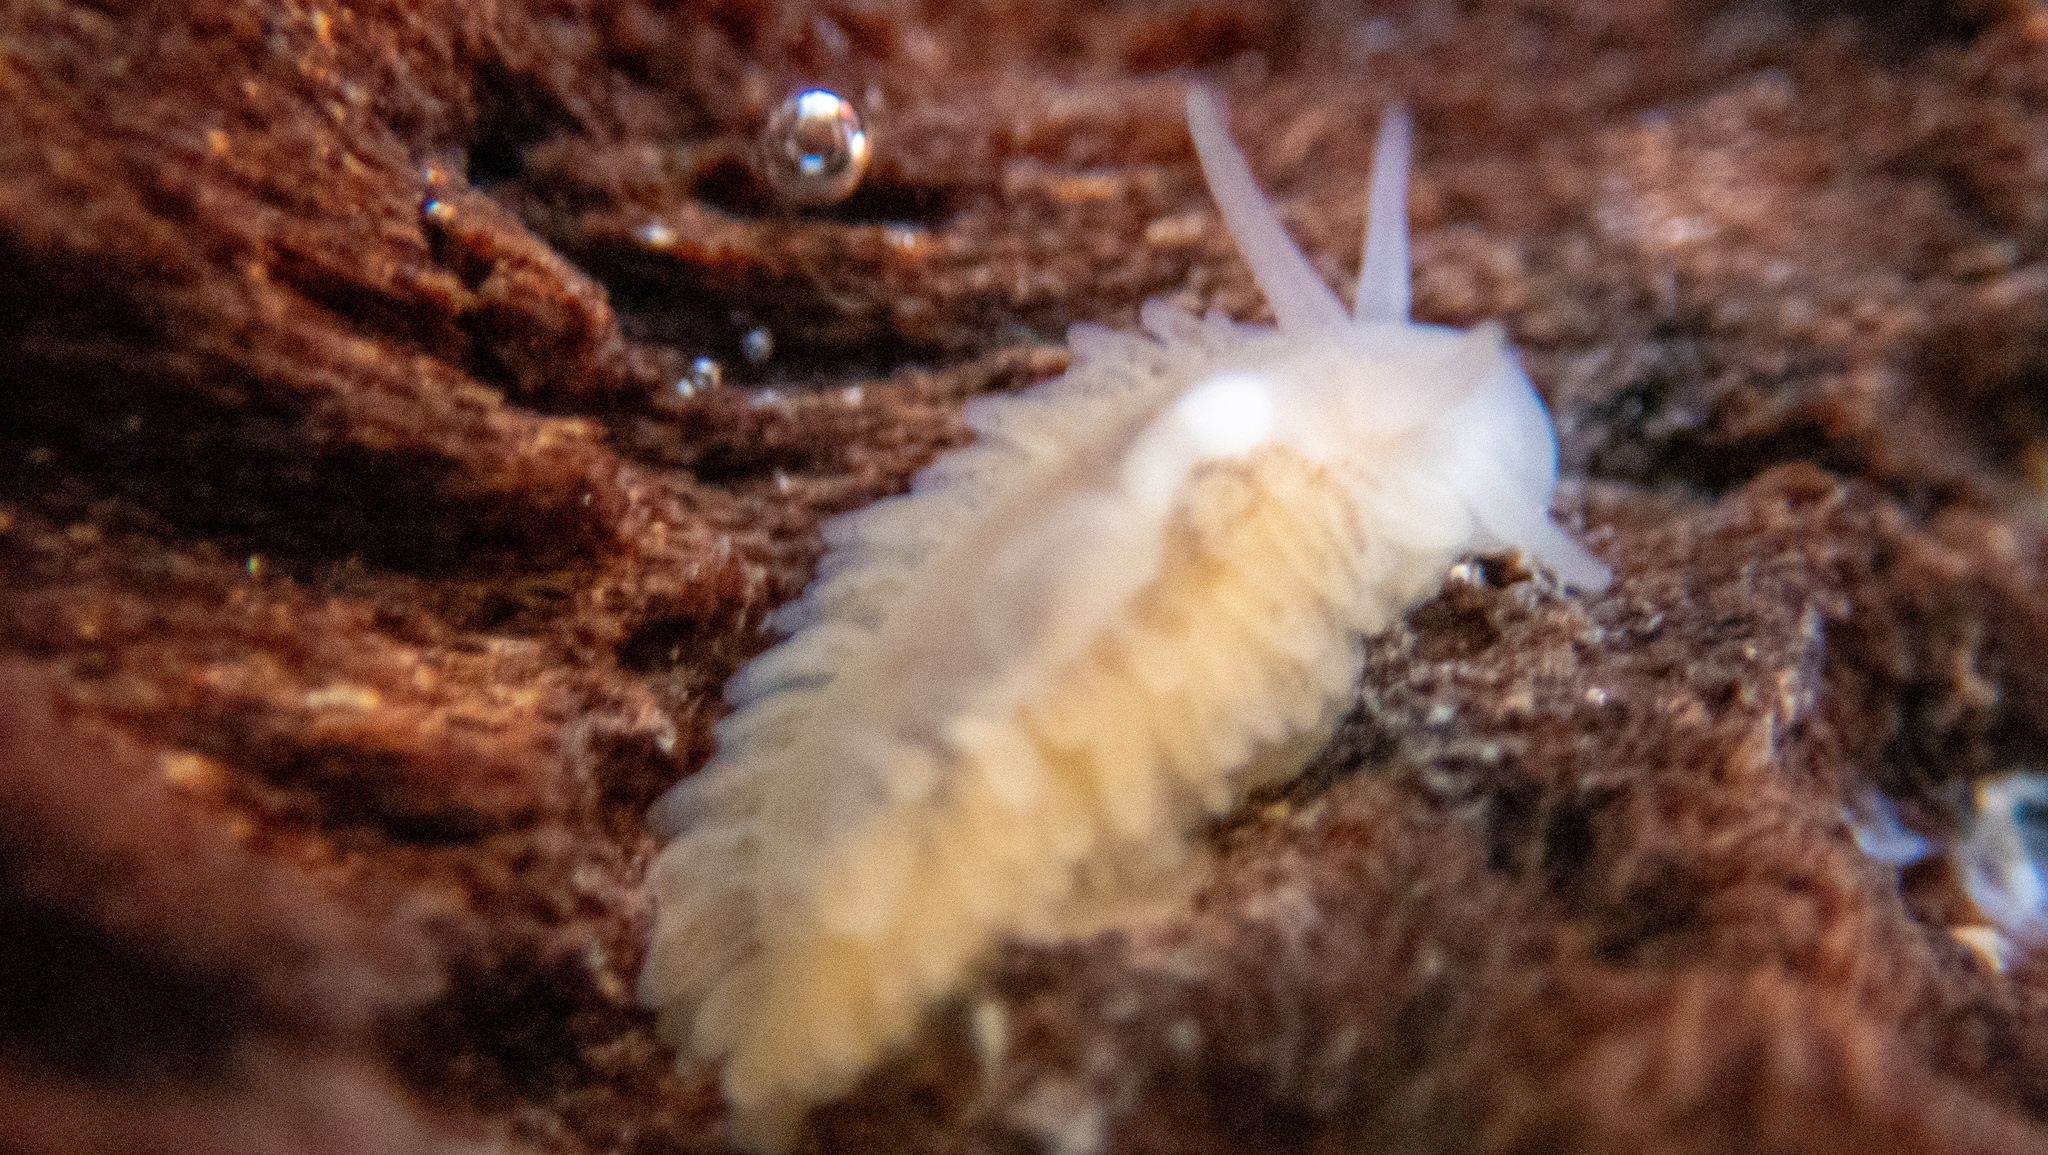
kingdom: Animalia
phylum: Mollusca
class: Gastropoda
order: Nudibranchia
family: Fionidae
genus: Fiona
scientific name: Fiona pinnata
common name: Fiona
